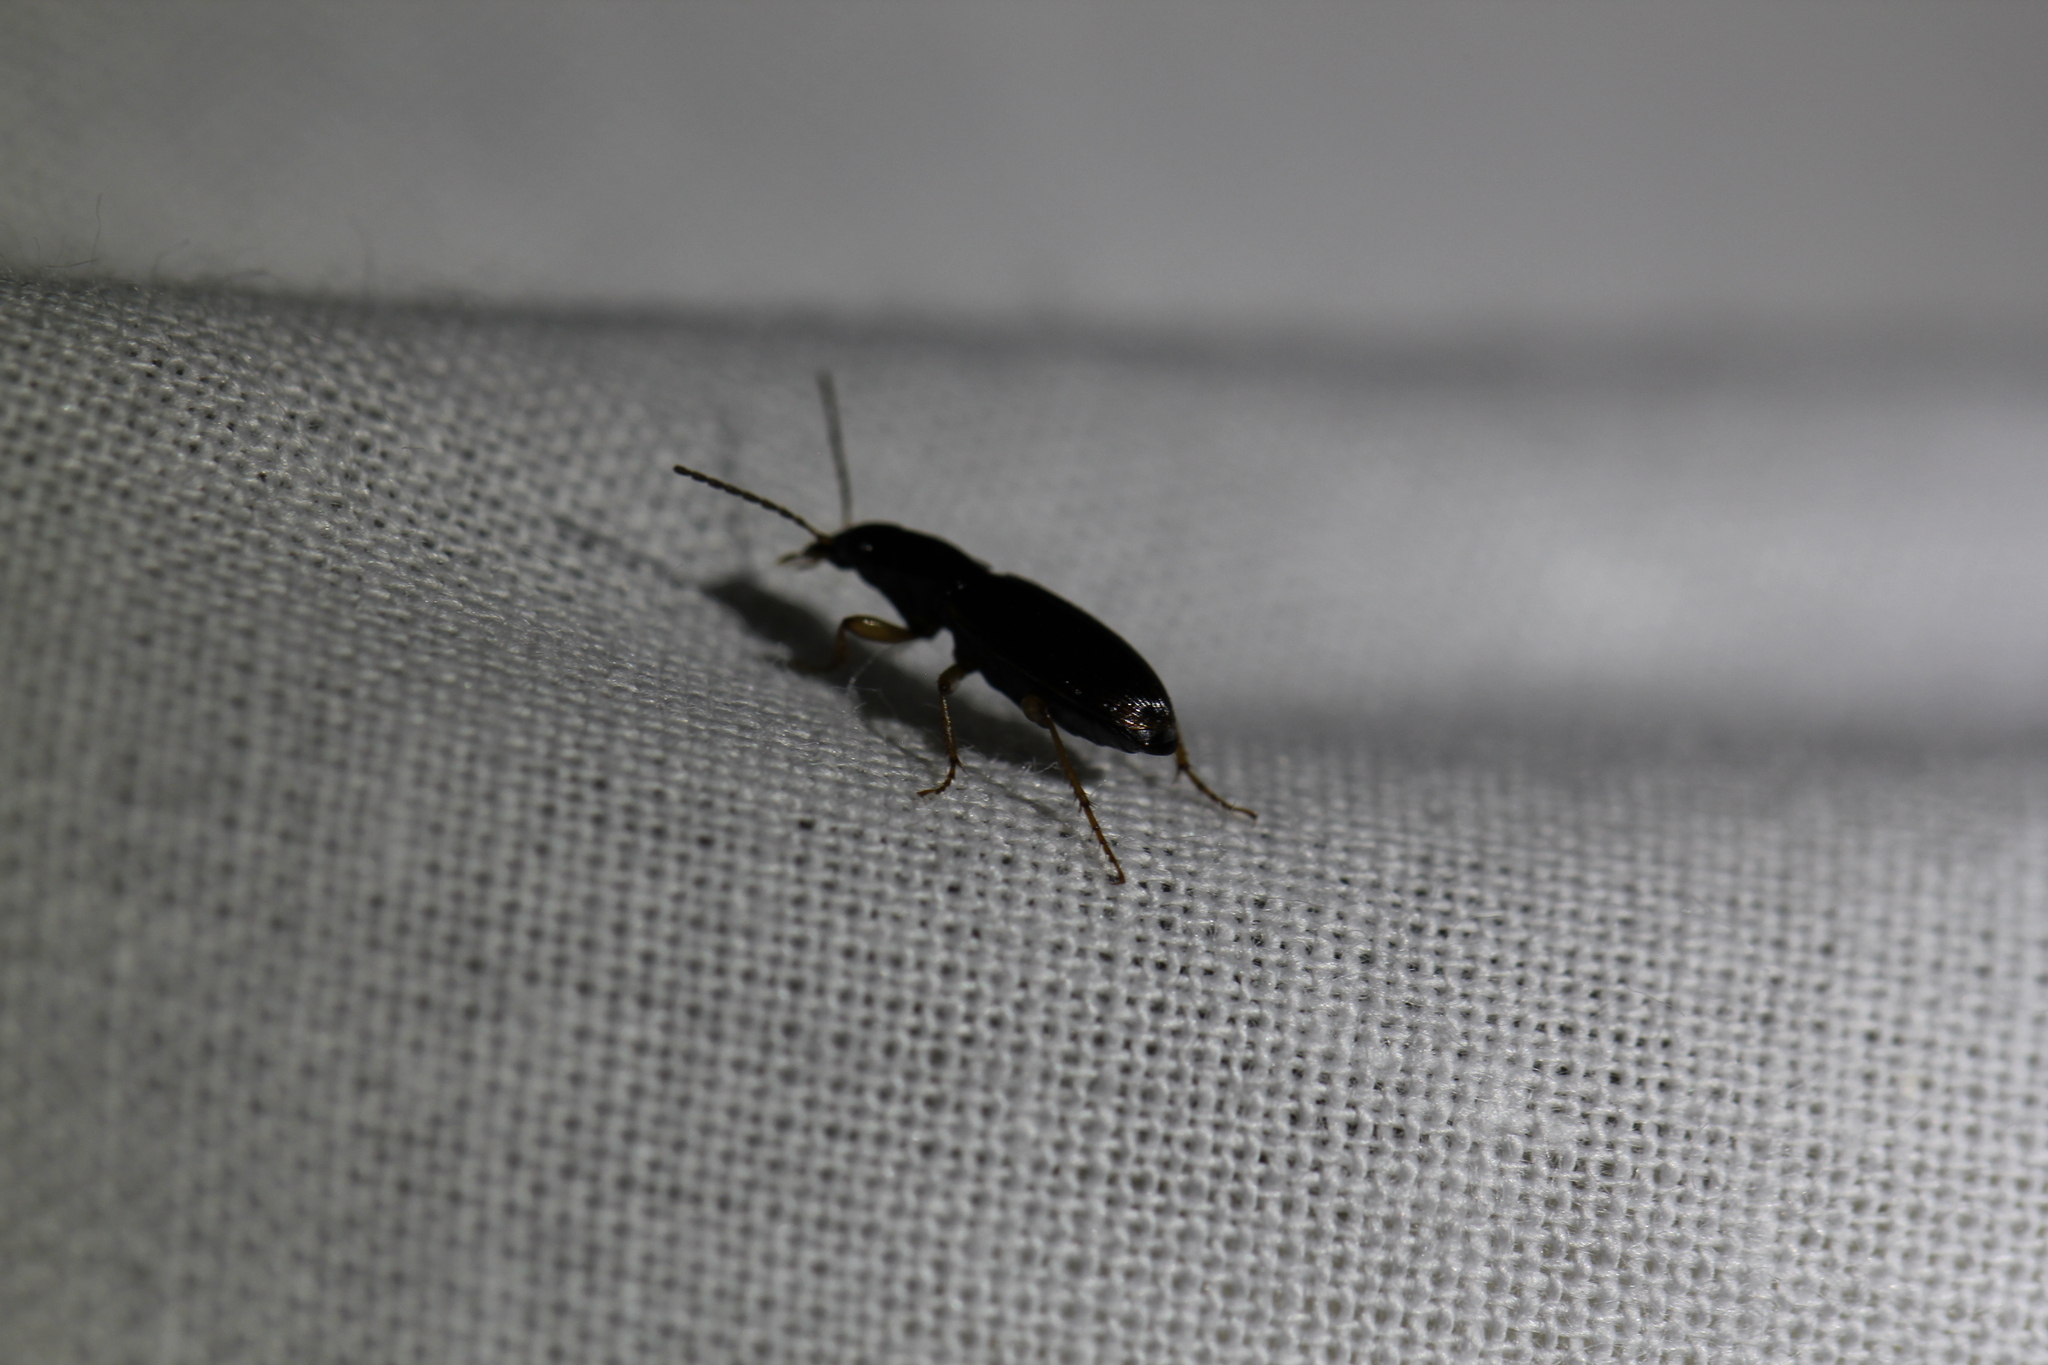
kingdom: Animalia
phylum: Arthropoda
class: Insecta
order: Coleoptera
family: Carabidae
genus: Stenolophus
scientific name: Stenolophus ochropezus
